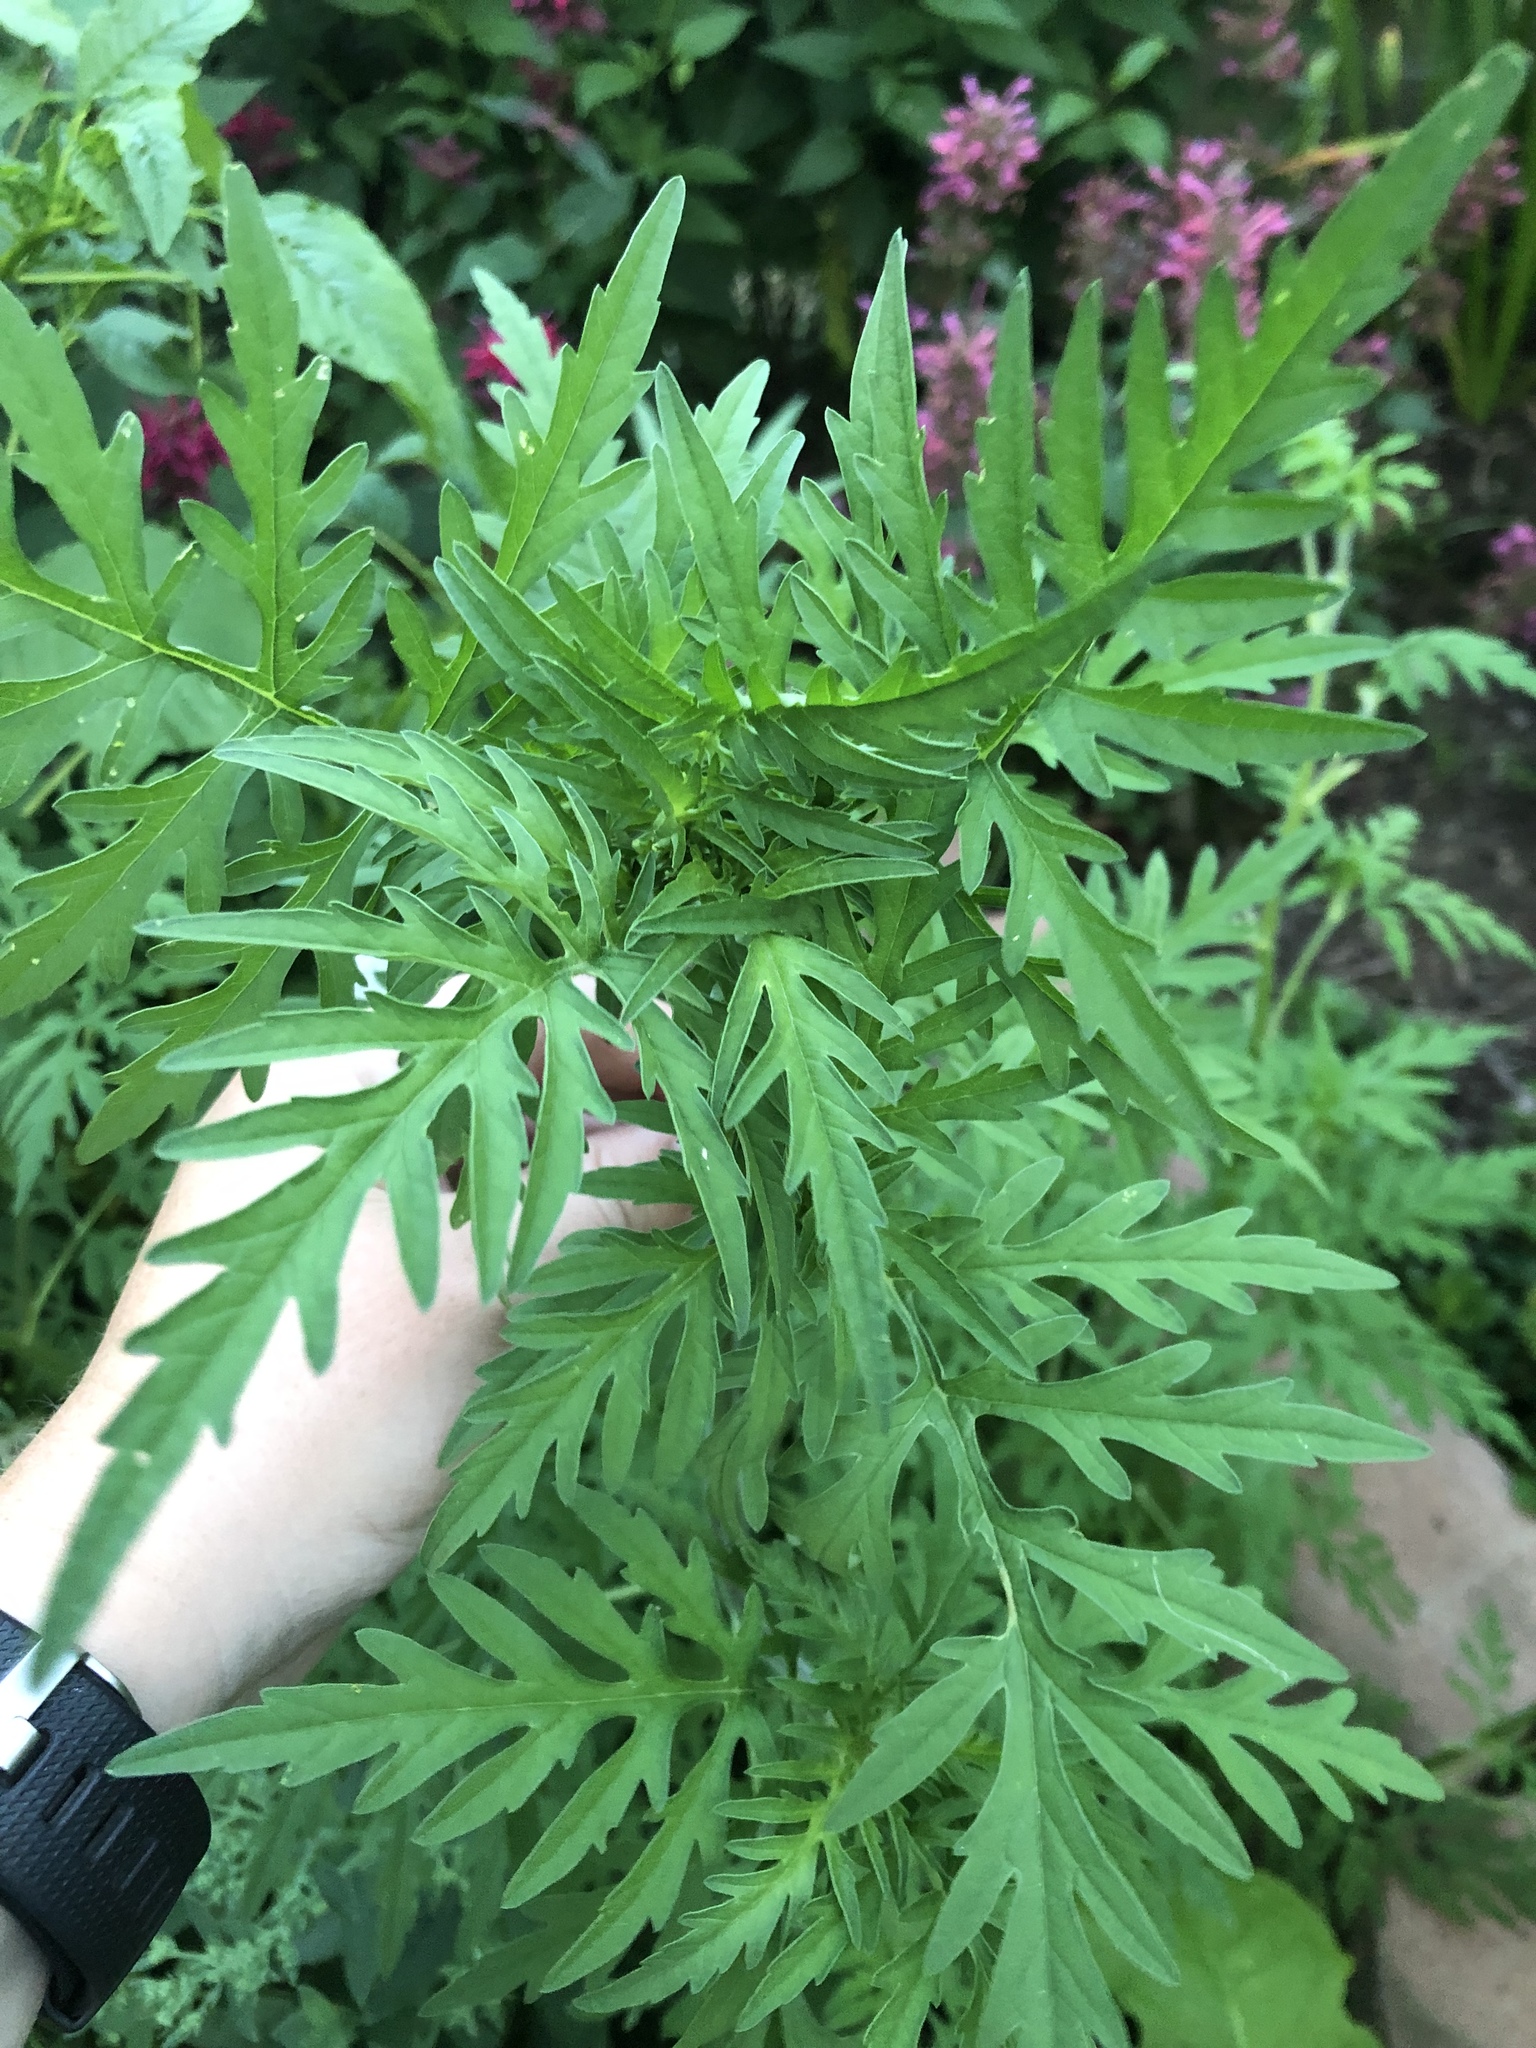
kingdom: Plantae
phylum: Tracheophyta
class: Magnoliopsida
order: Asterales
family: Asteraceae
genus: Ambrosia
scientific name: Ambrosia artemisiifolia
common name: Annual ragweed
